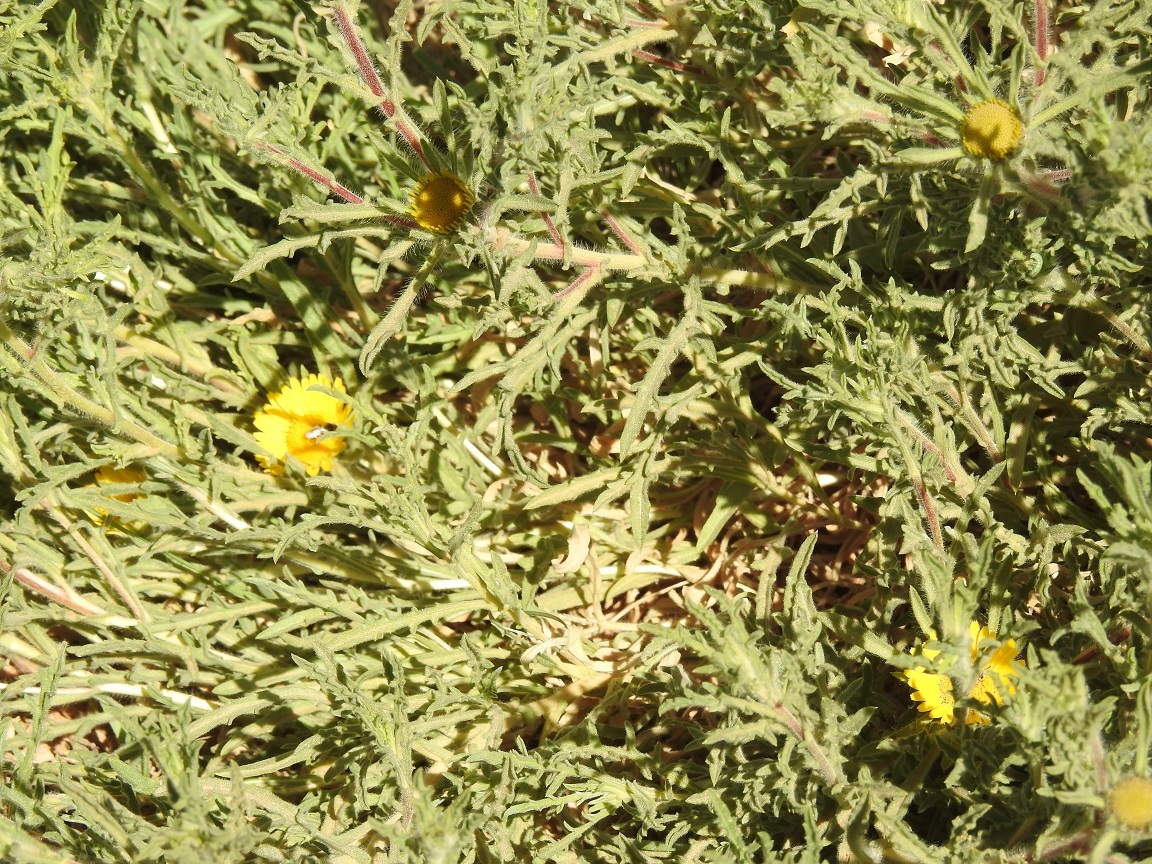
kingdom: Plantae
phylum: Tracheophyta
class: Magnoliopsida
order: Asterales
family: Asteraceae
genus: Asteriscus
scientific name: Asteriscus graveolens
